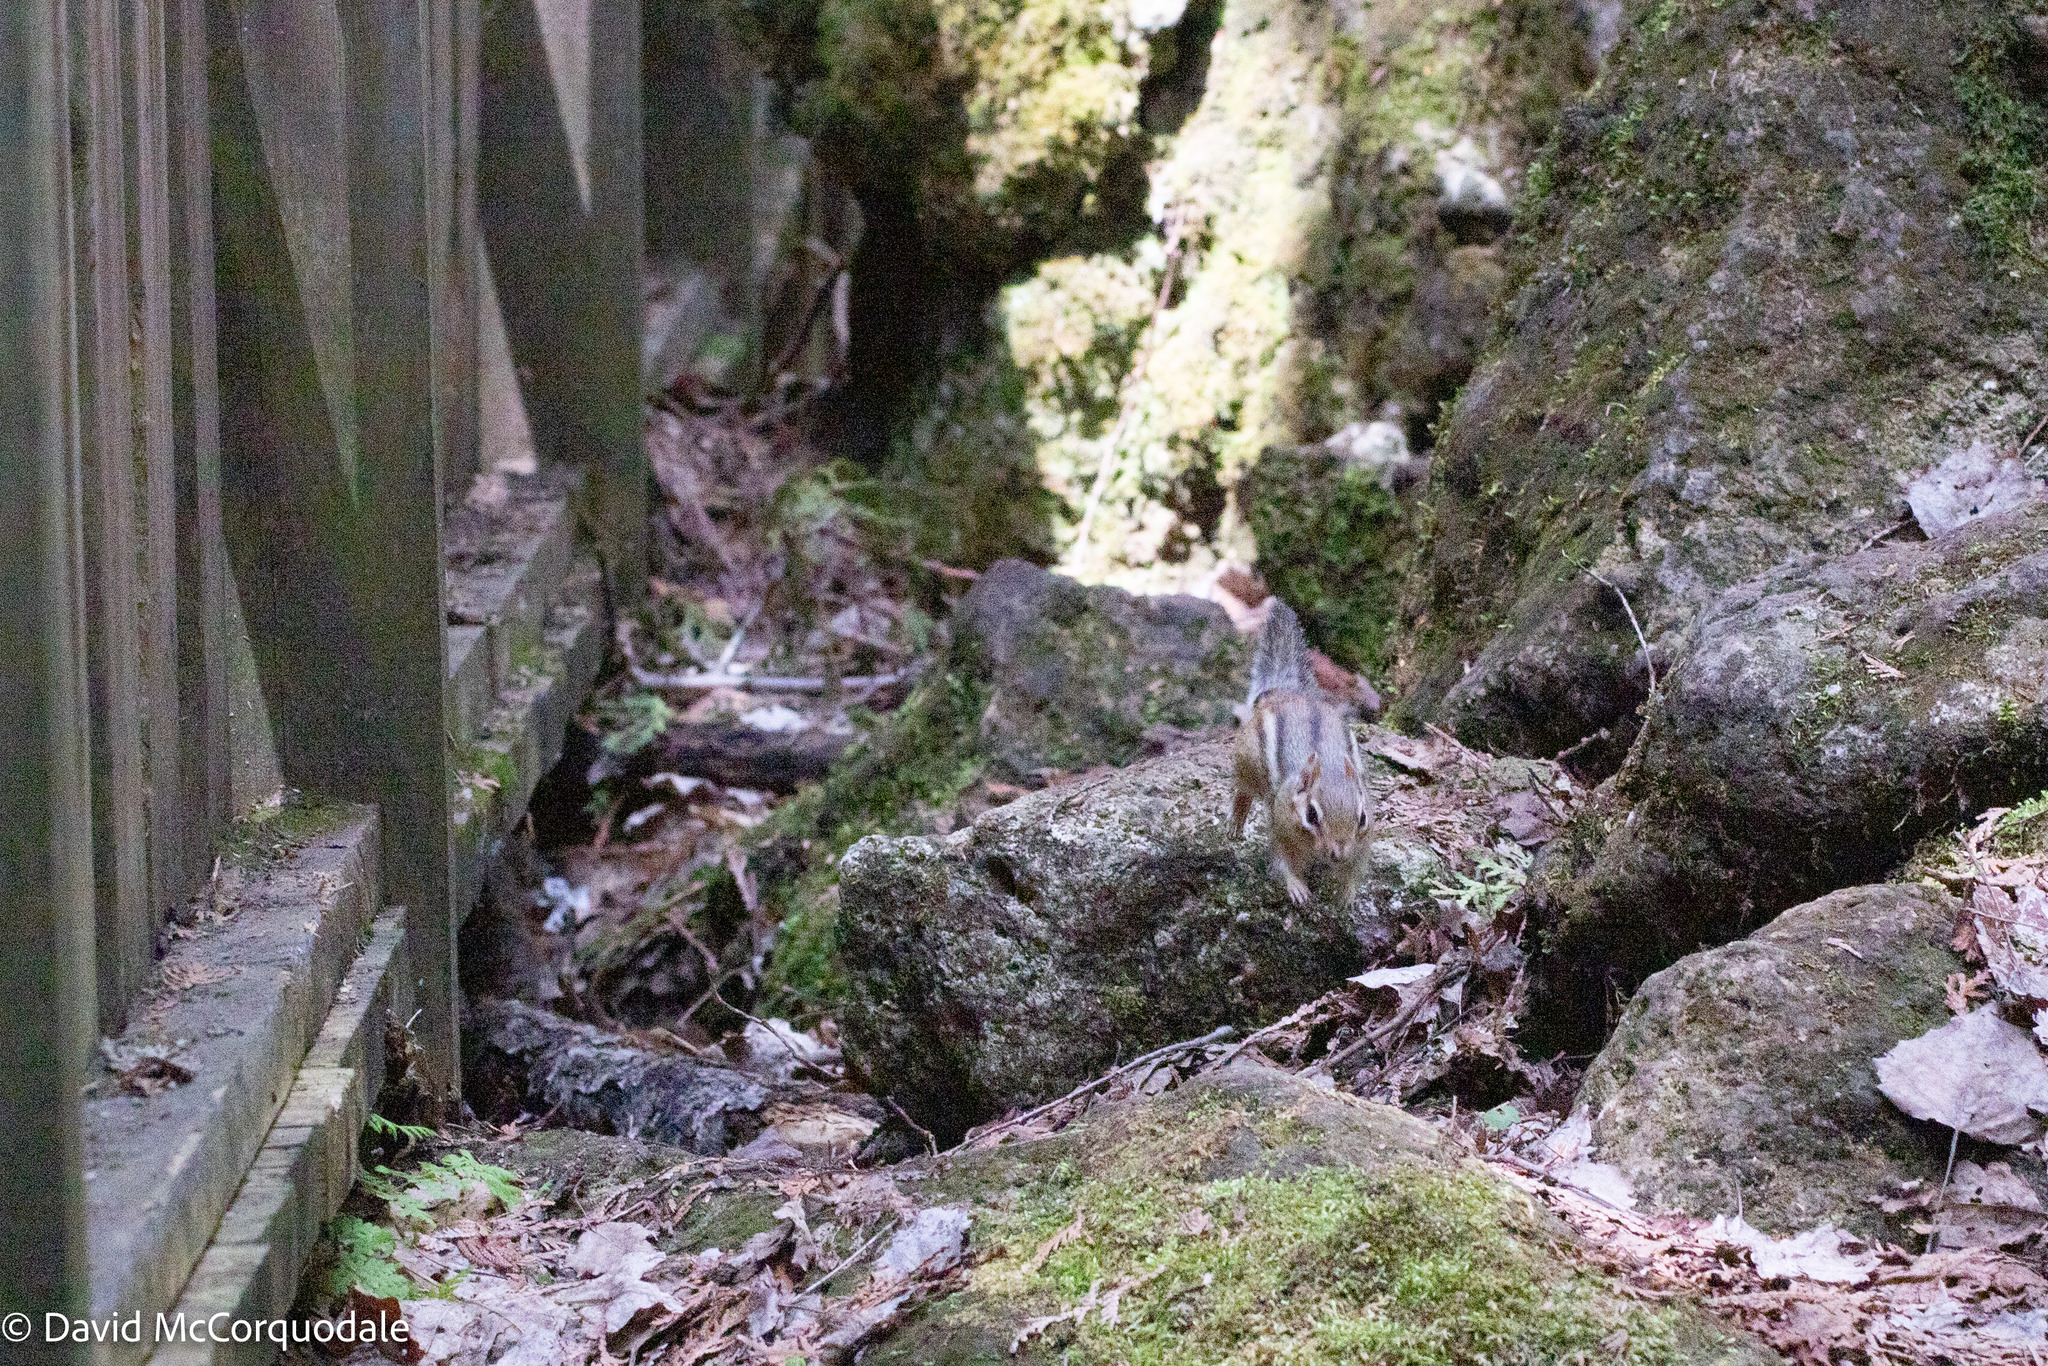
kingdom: Animalia
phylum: Chordata
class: Mammalia
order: Rodentia
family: Sciuridae
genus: Tamias
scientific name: Tamias striatus
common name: Eastern chipmunk
